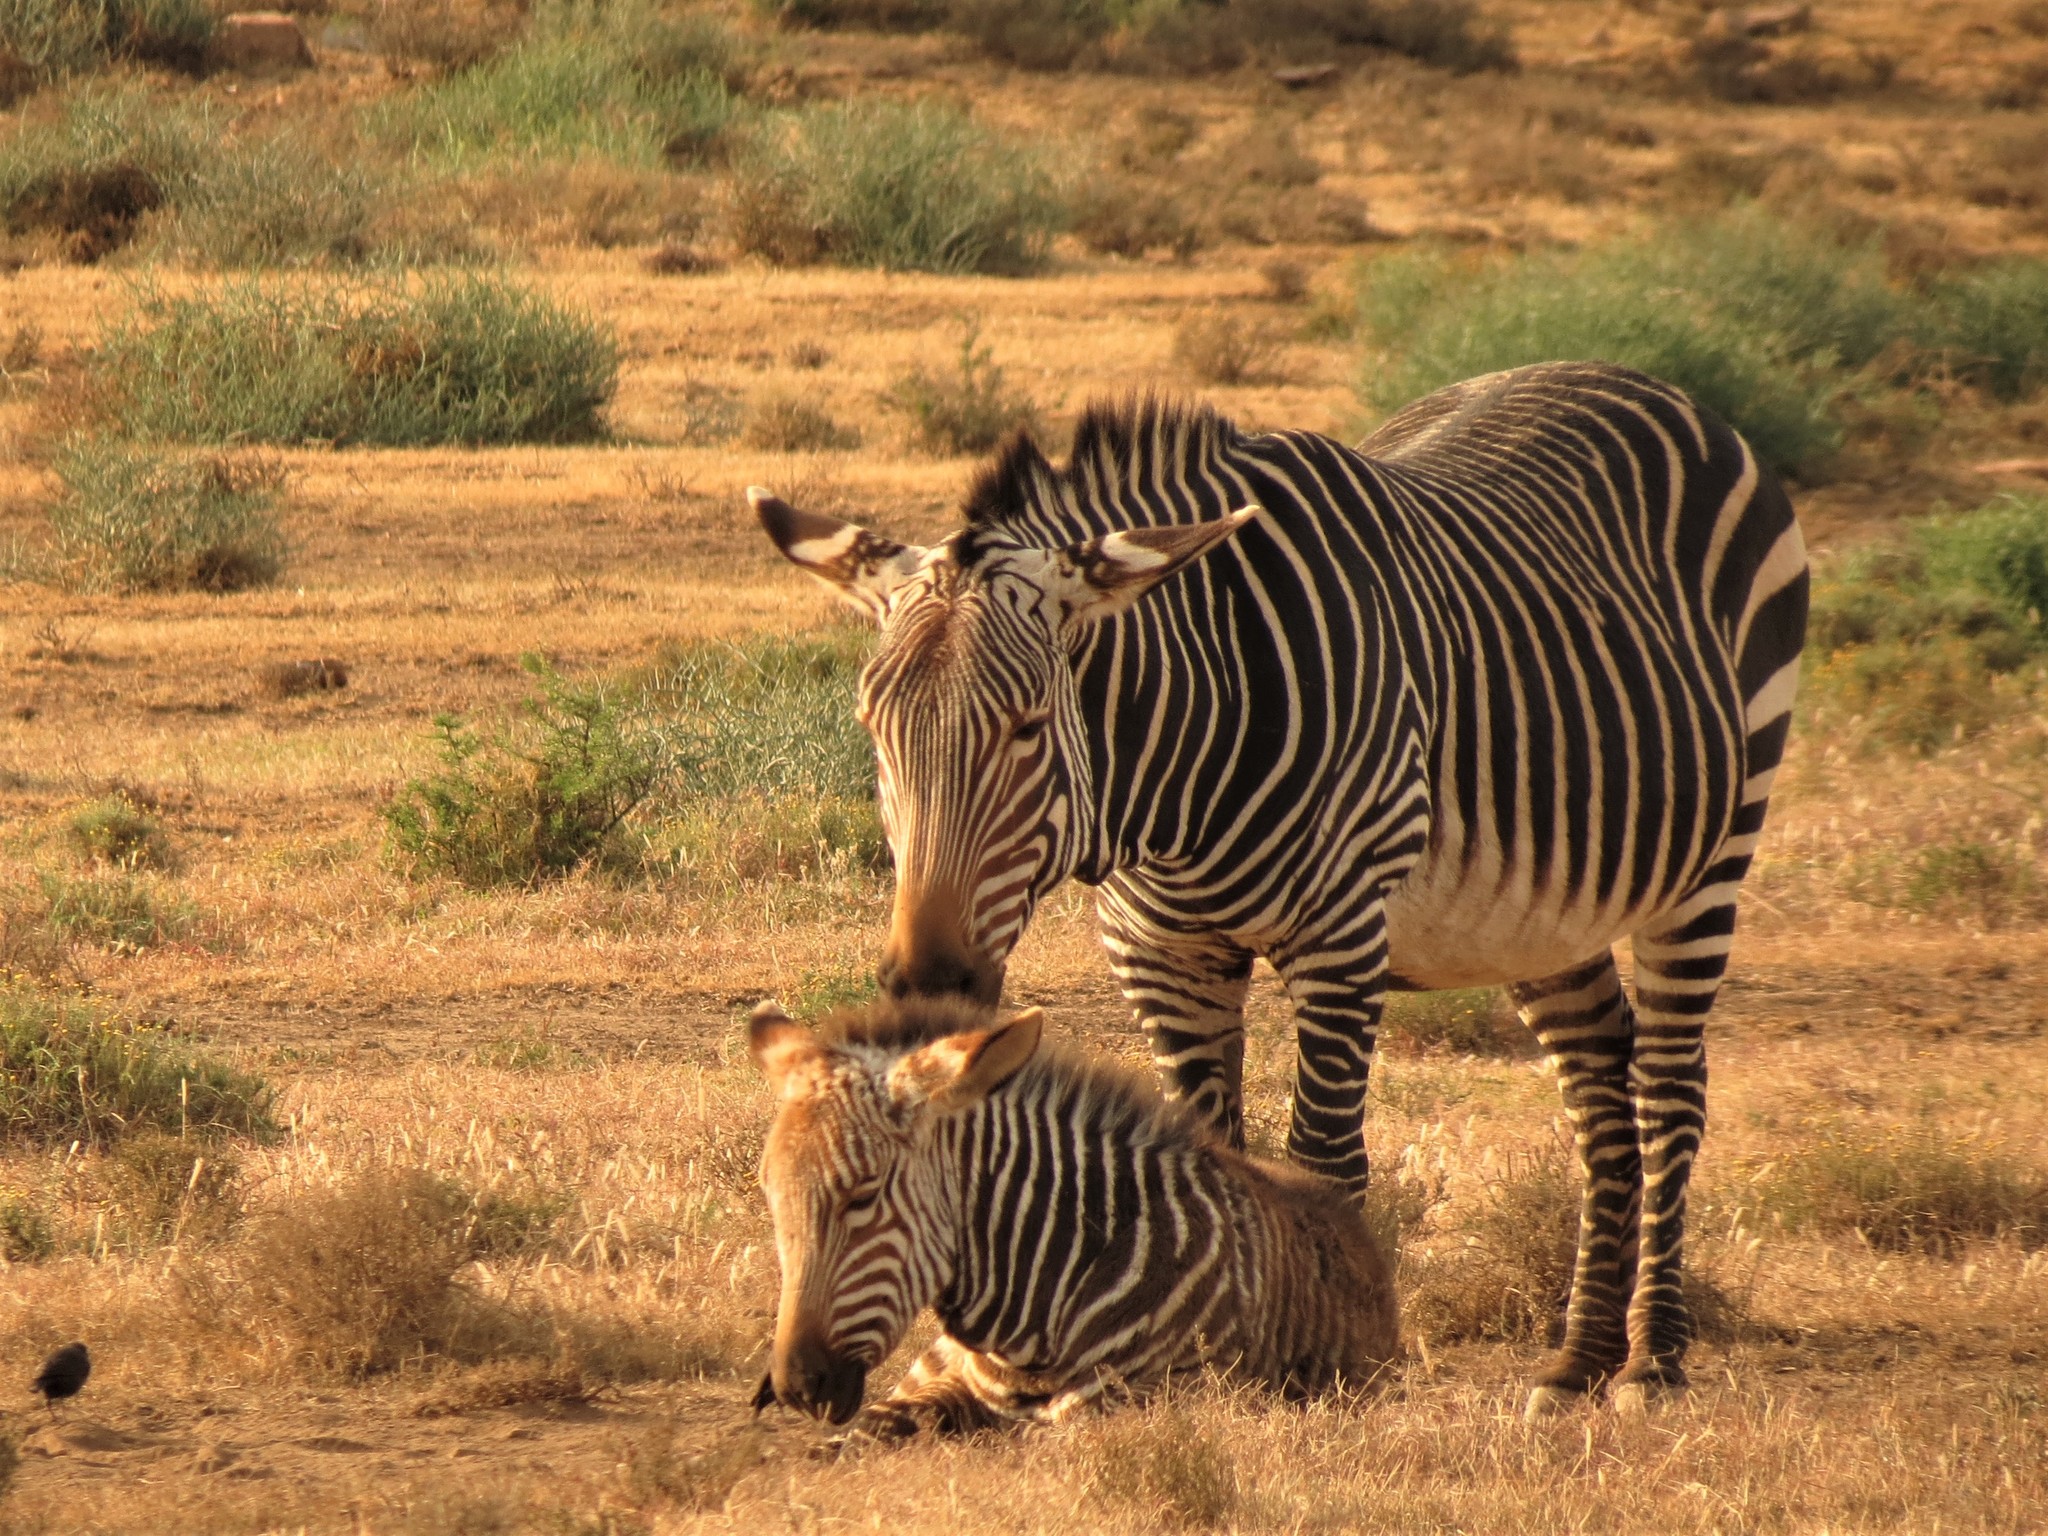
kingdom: Animalia
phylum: Chordata
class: Mammalia
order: Perissodactyla
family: Equidae
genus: Equus
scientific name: Equus zebra
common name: Mountain zebra
